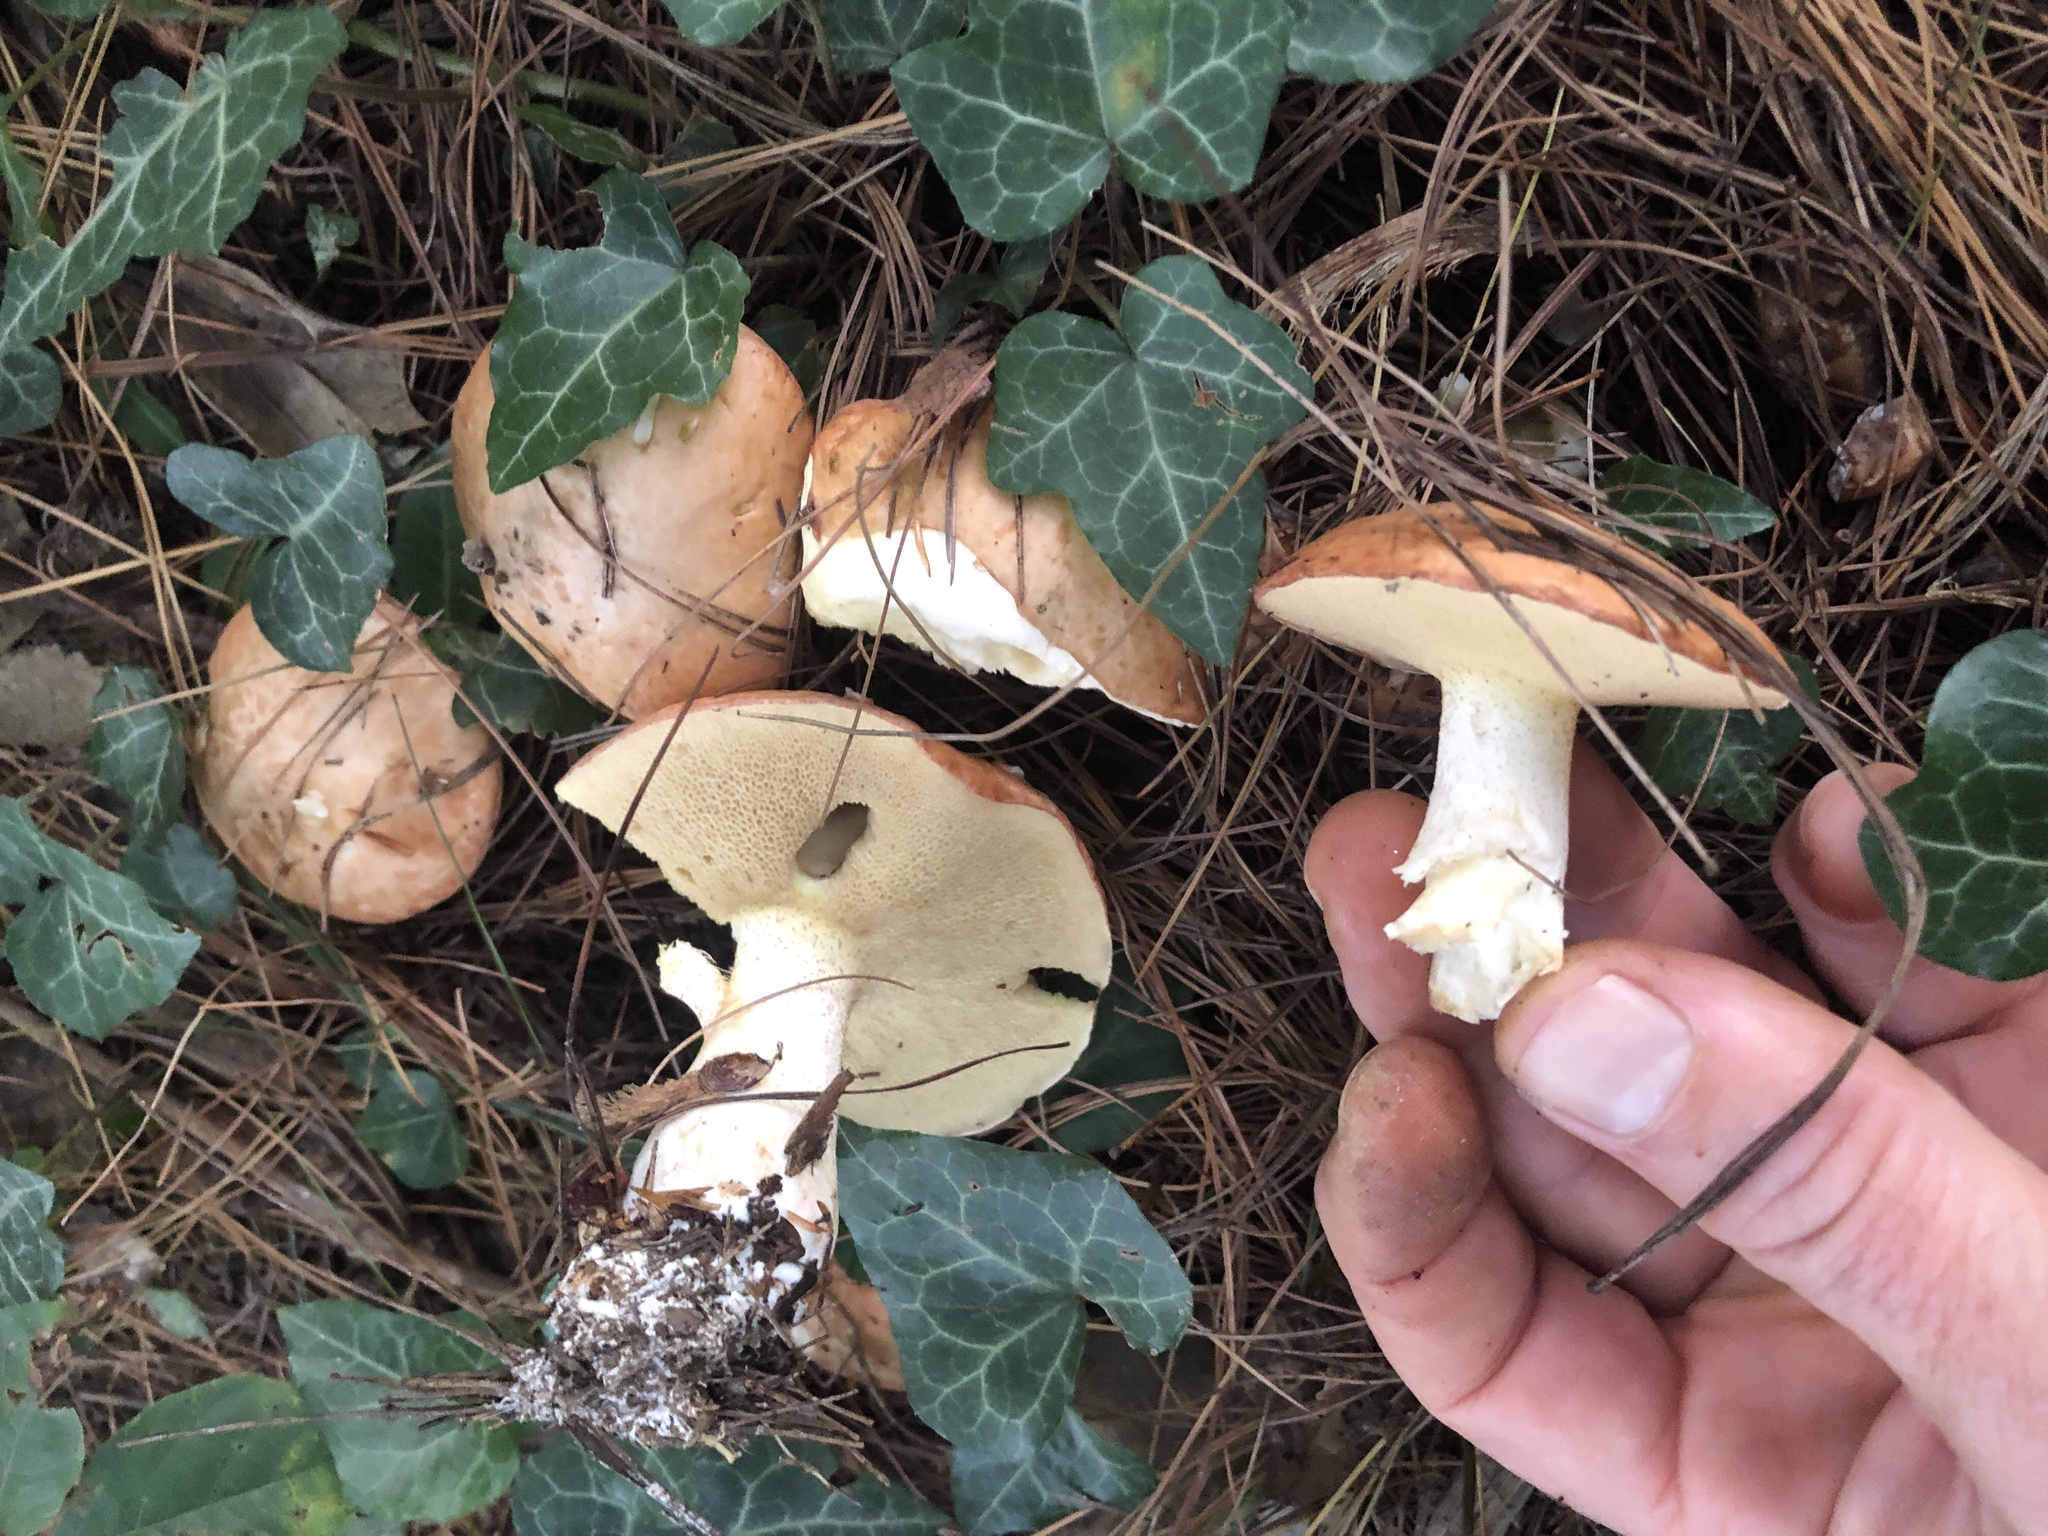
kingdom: Fungi
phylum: Basidiomycota
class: Agaricomycetes
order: Boletales
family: Suillaceae
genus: Fuscoboletinus
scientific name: Fuscoboletinus weaverae
